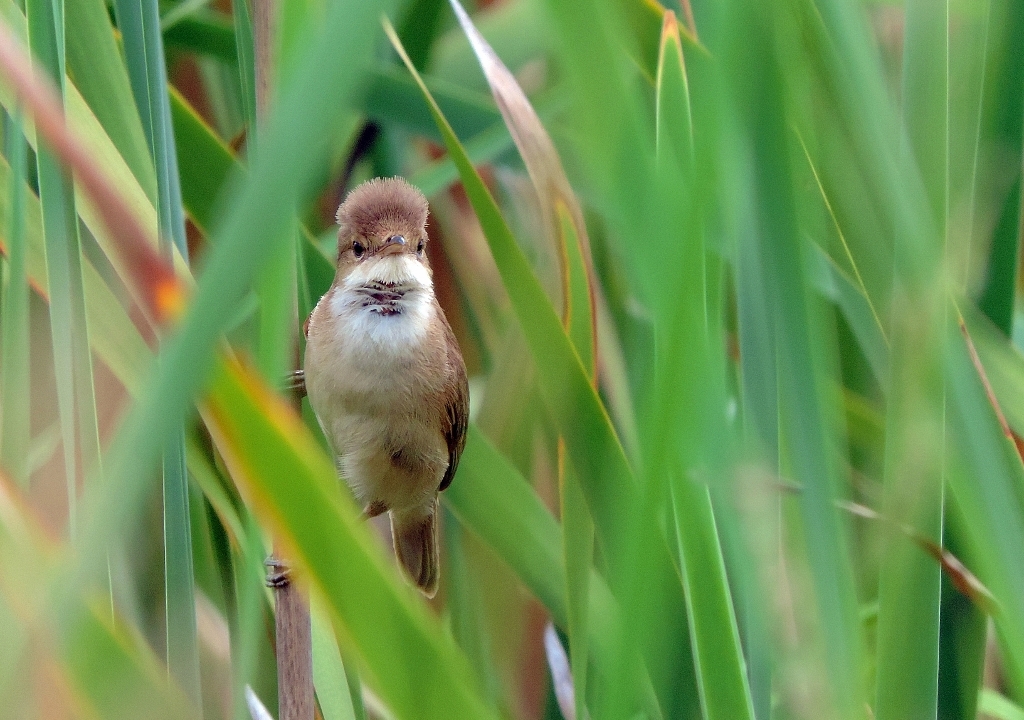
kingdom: Animalia
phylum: Chordata
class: Aves
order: Passeriformes
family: Acrocephalidae
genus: Acrocephalus
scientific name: Acrocephalus baeticatus
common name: African reed warbler
